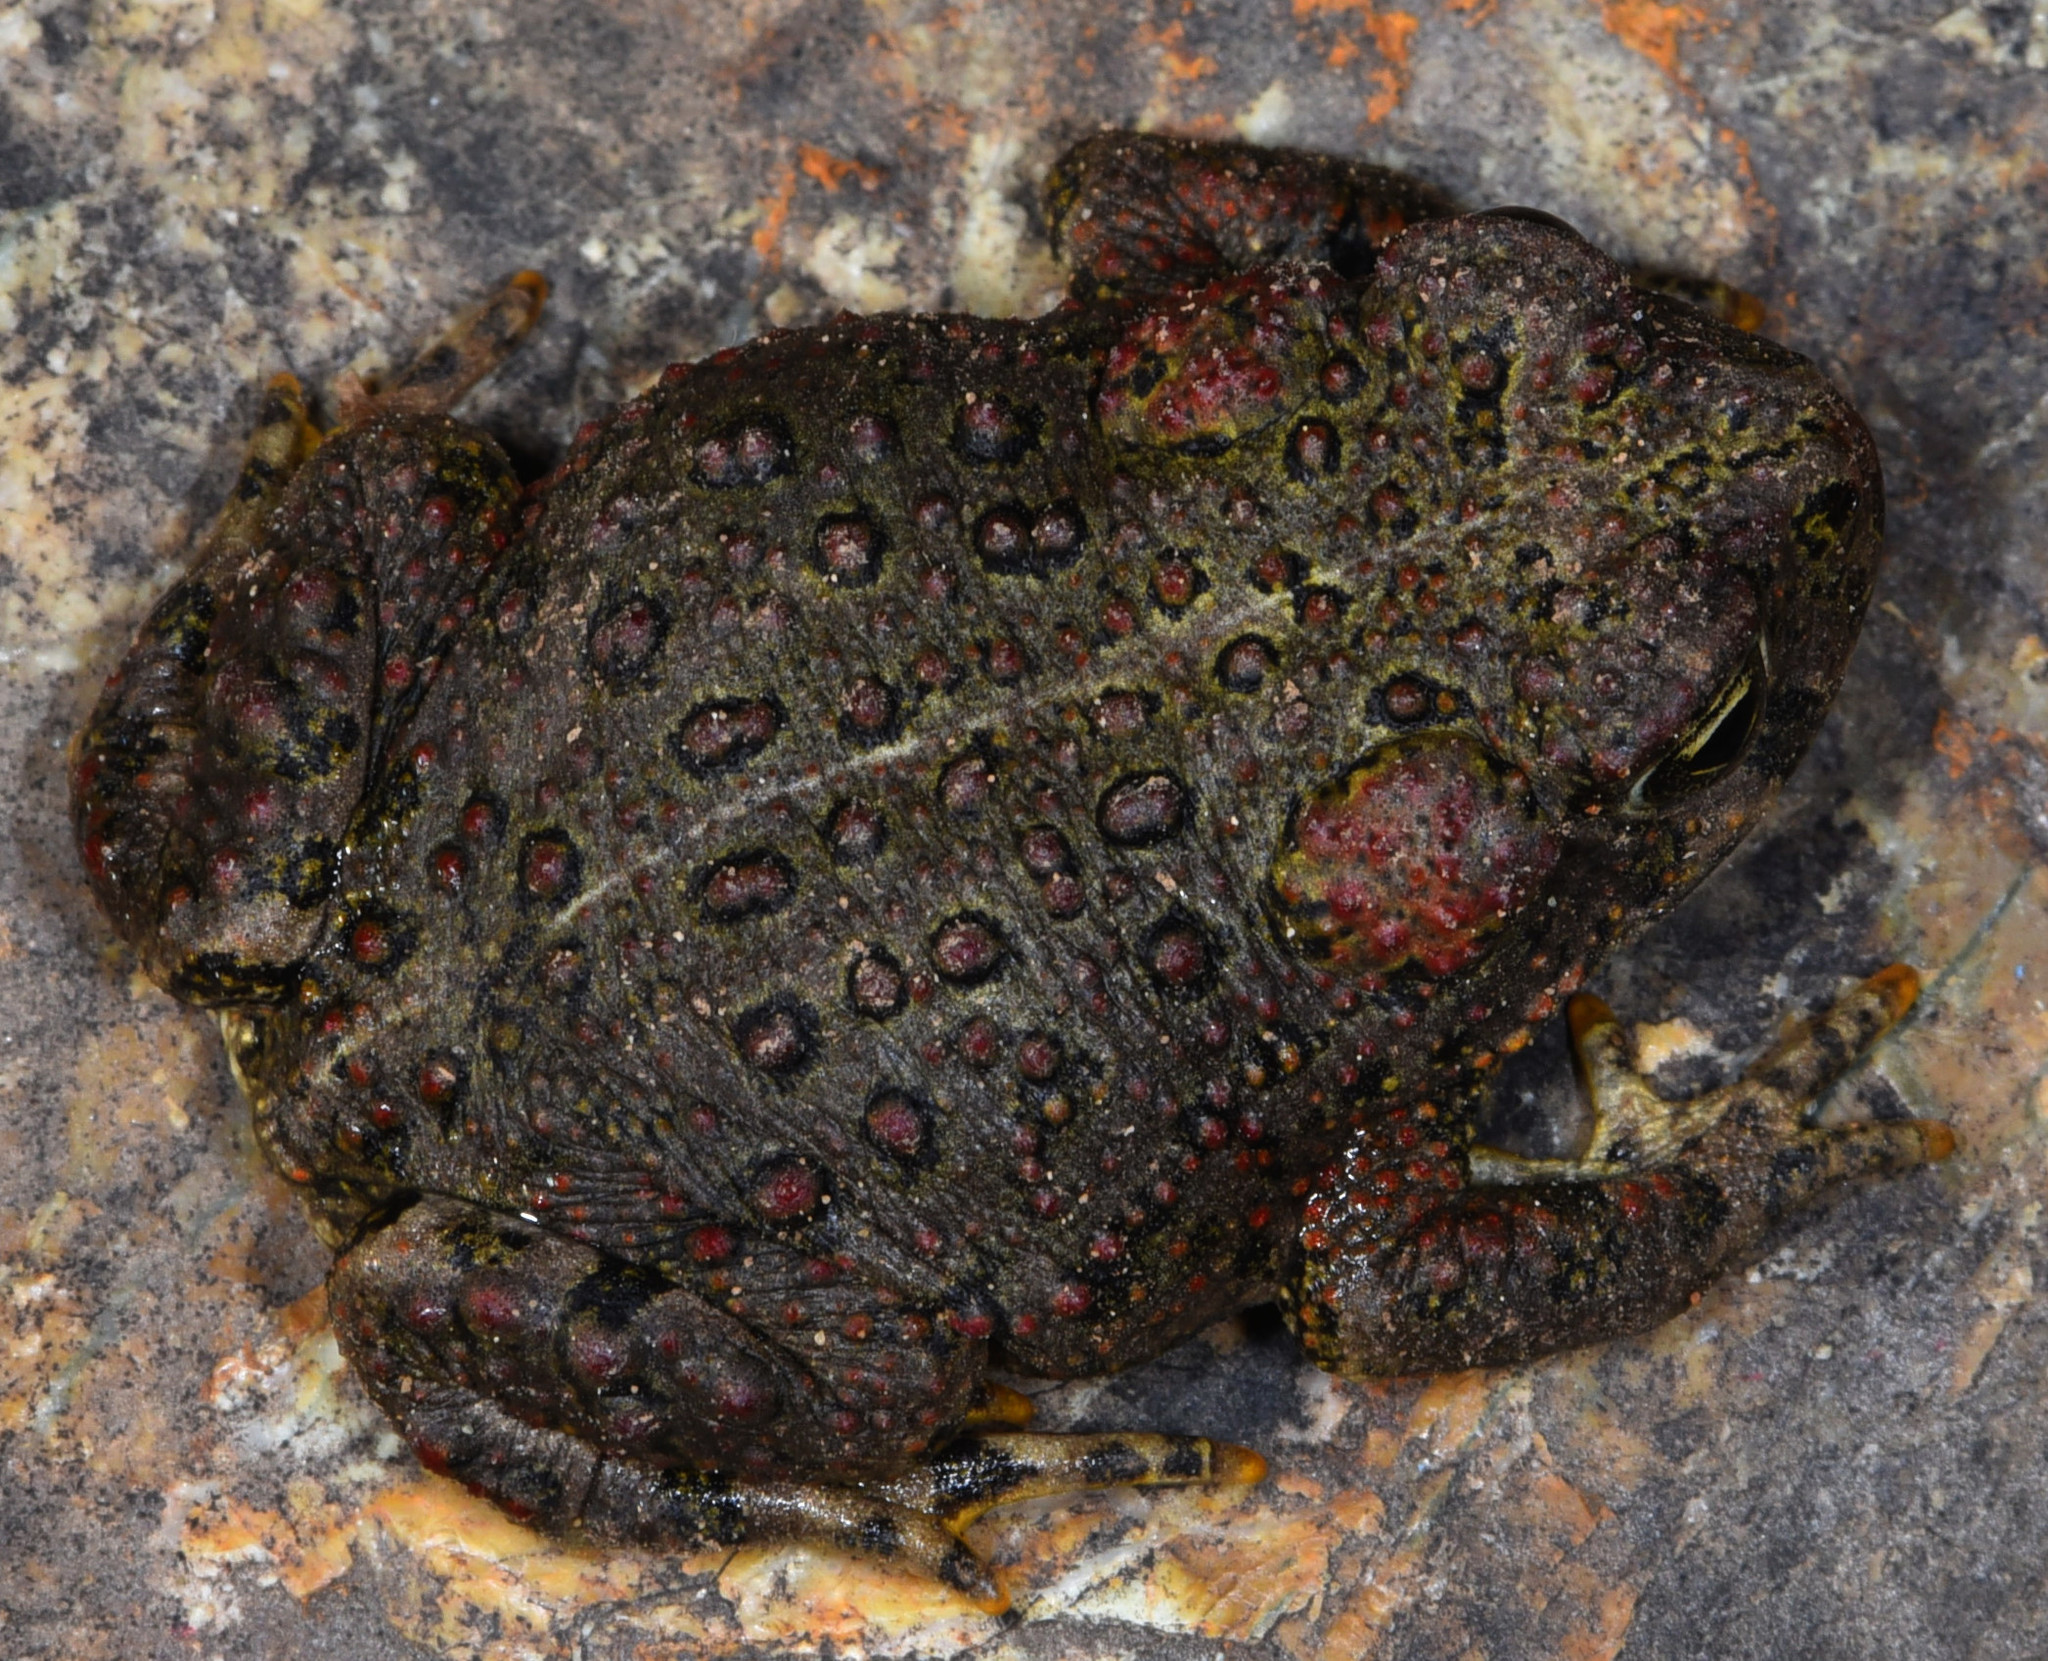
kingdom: Animalia
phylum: Chordata
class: Amphibia
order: Anura
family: Bufonidae
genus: Anaxyrus
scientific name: Anaxyrus boreas
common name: Western toad
